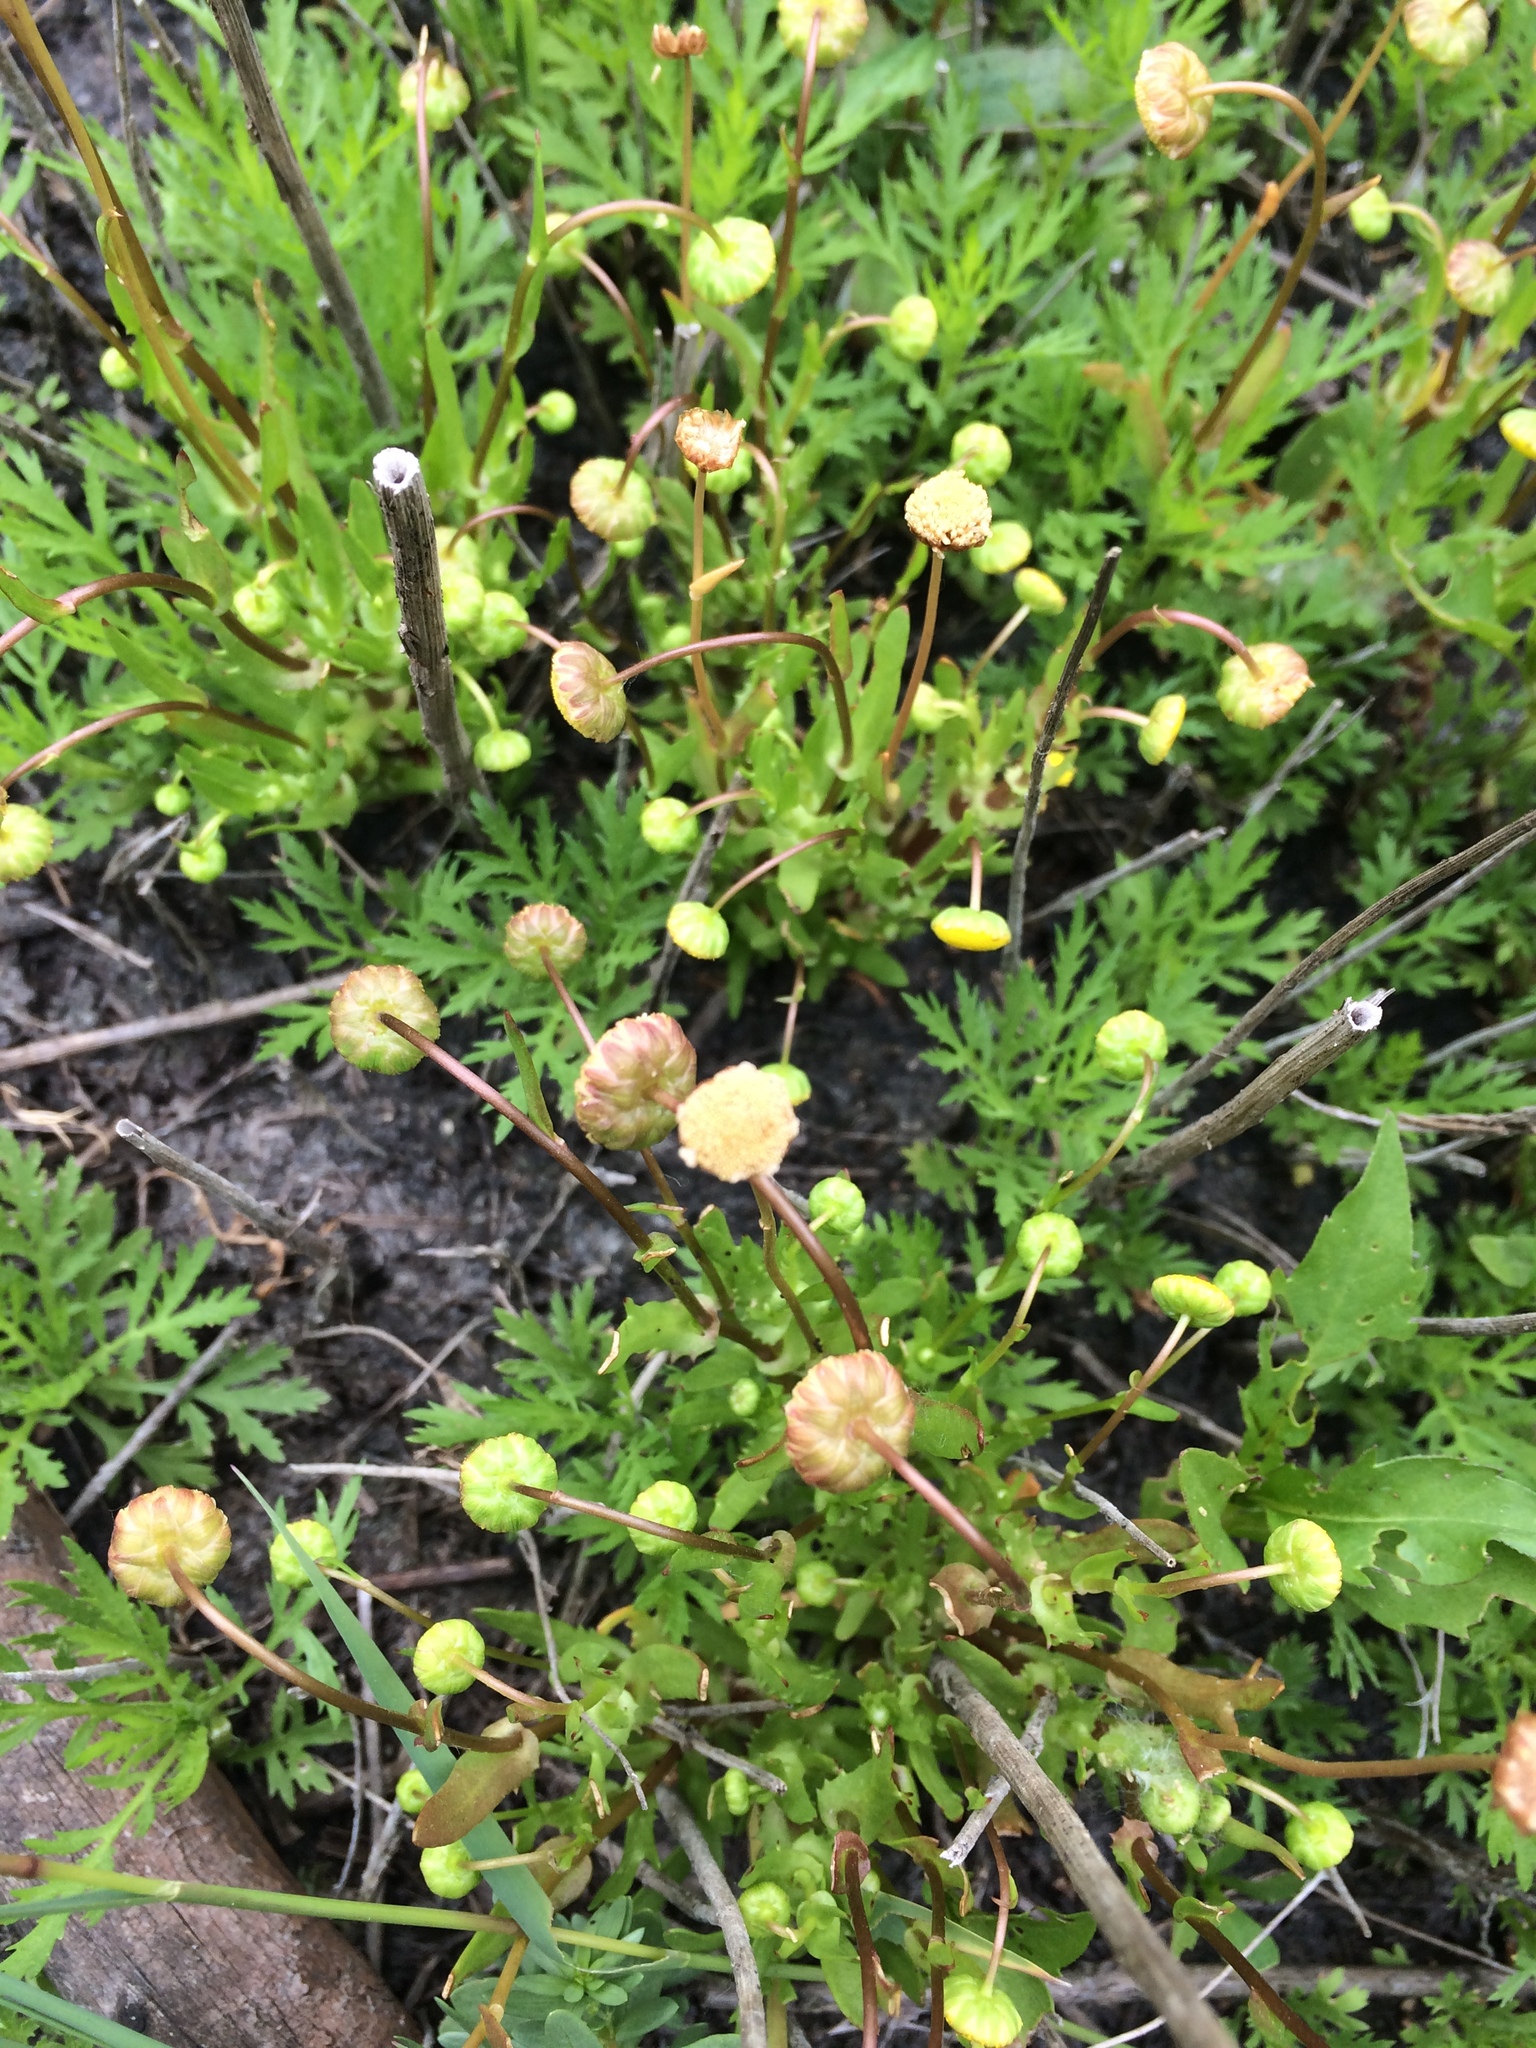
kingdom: Plantae
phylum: Tracheophyta
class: Magnoliopsida
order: Asterales
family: Asteraceae
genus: Cotula
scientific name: Cotula coronopifolia
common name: Buttonweed
